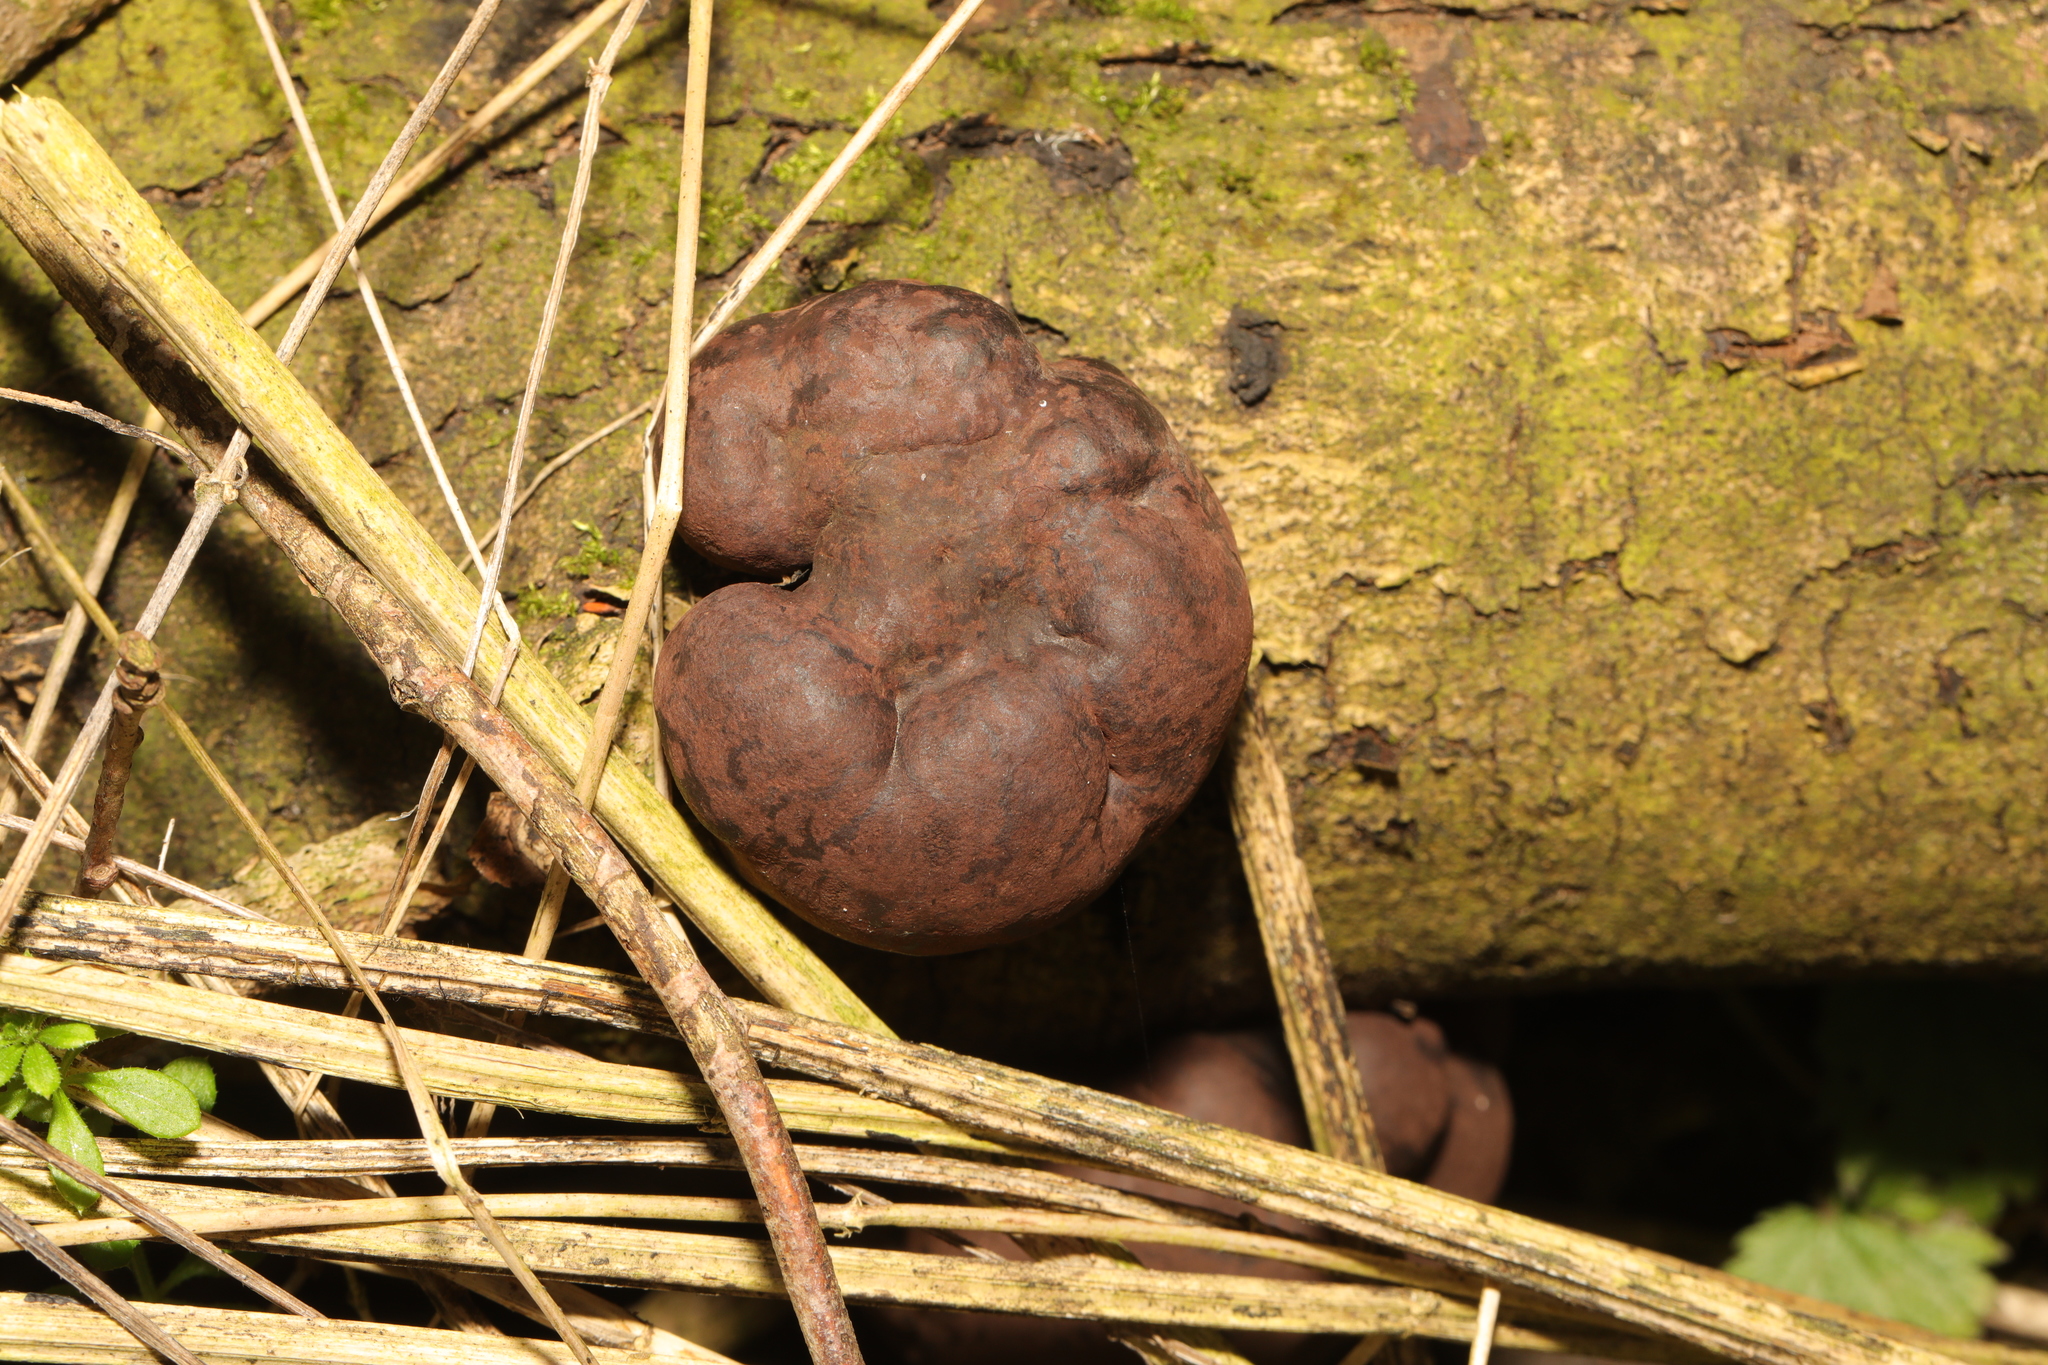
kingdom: Fungi
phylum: Ascomycota
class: Sordariomycetes
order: Xylariales
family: Hypoxylaceae
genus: Daldinia
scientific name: Daldinia concentrica
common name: Cramp balls
